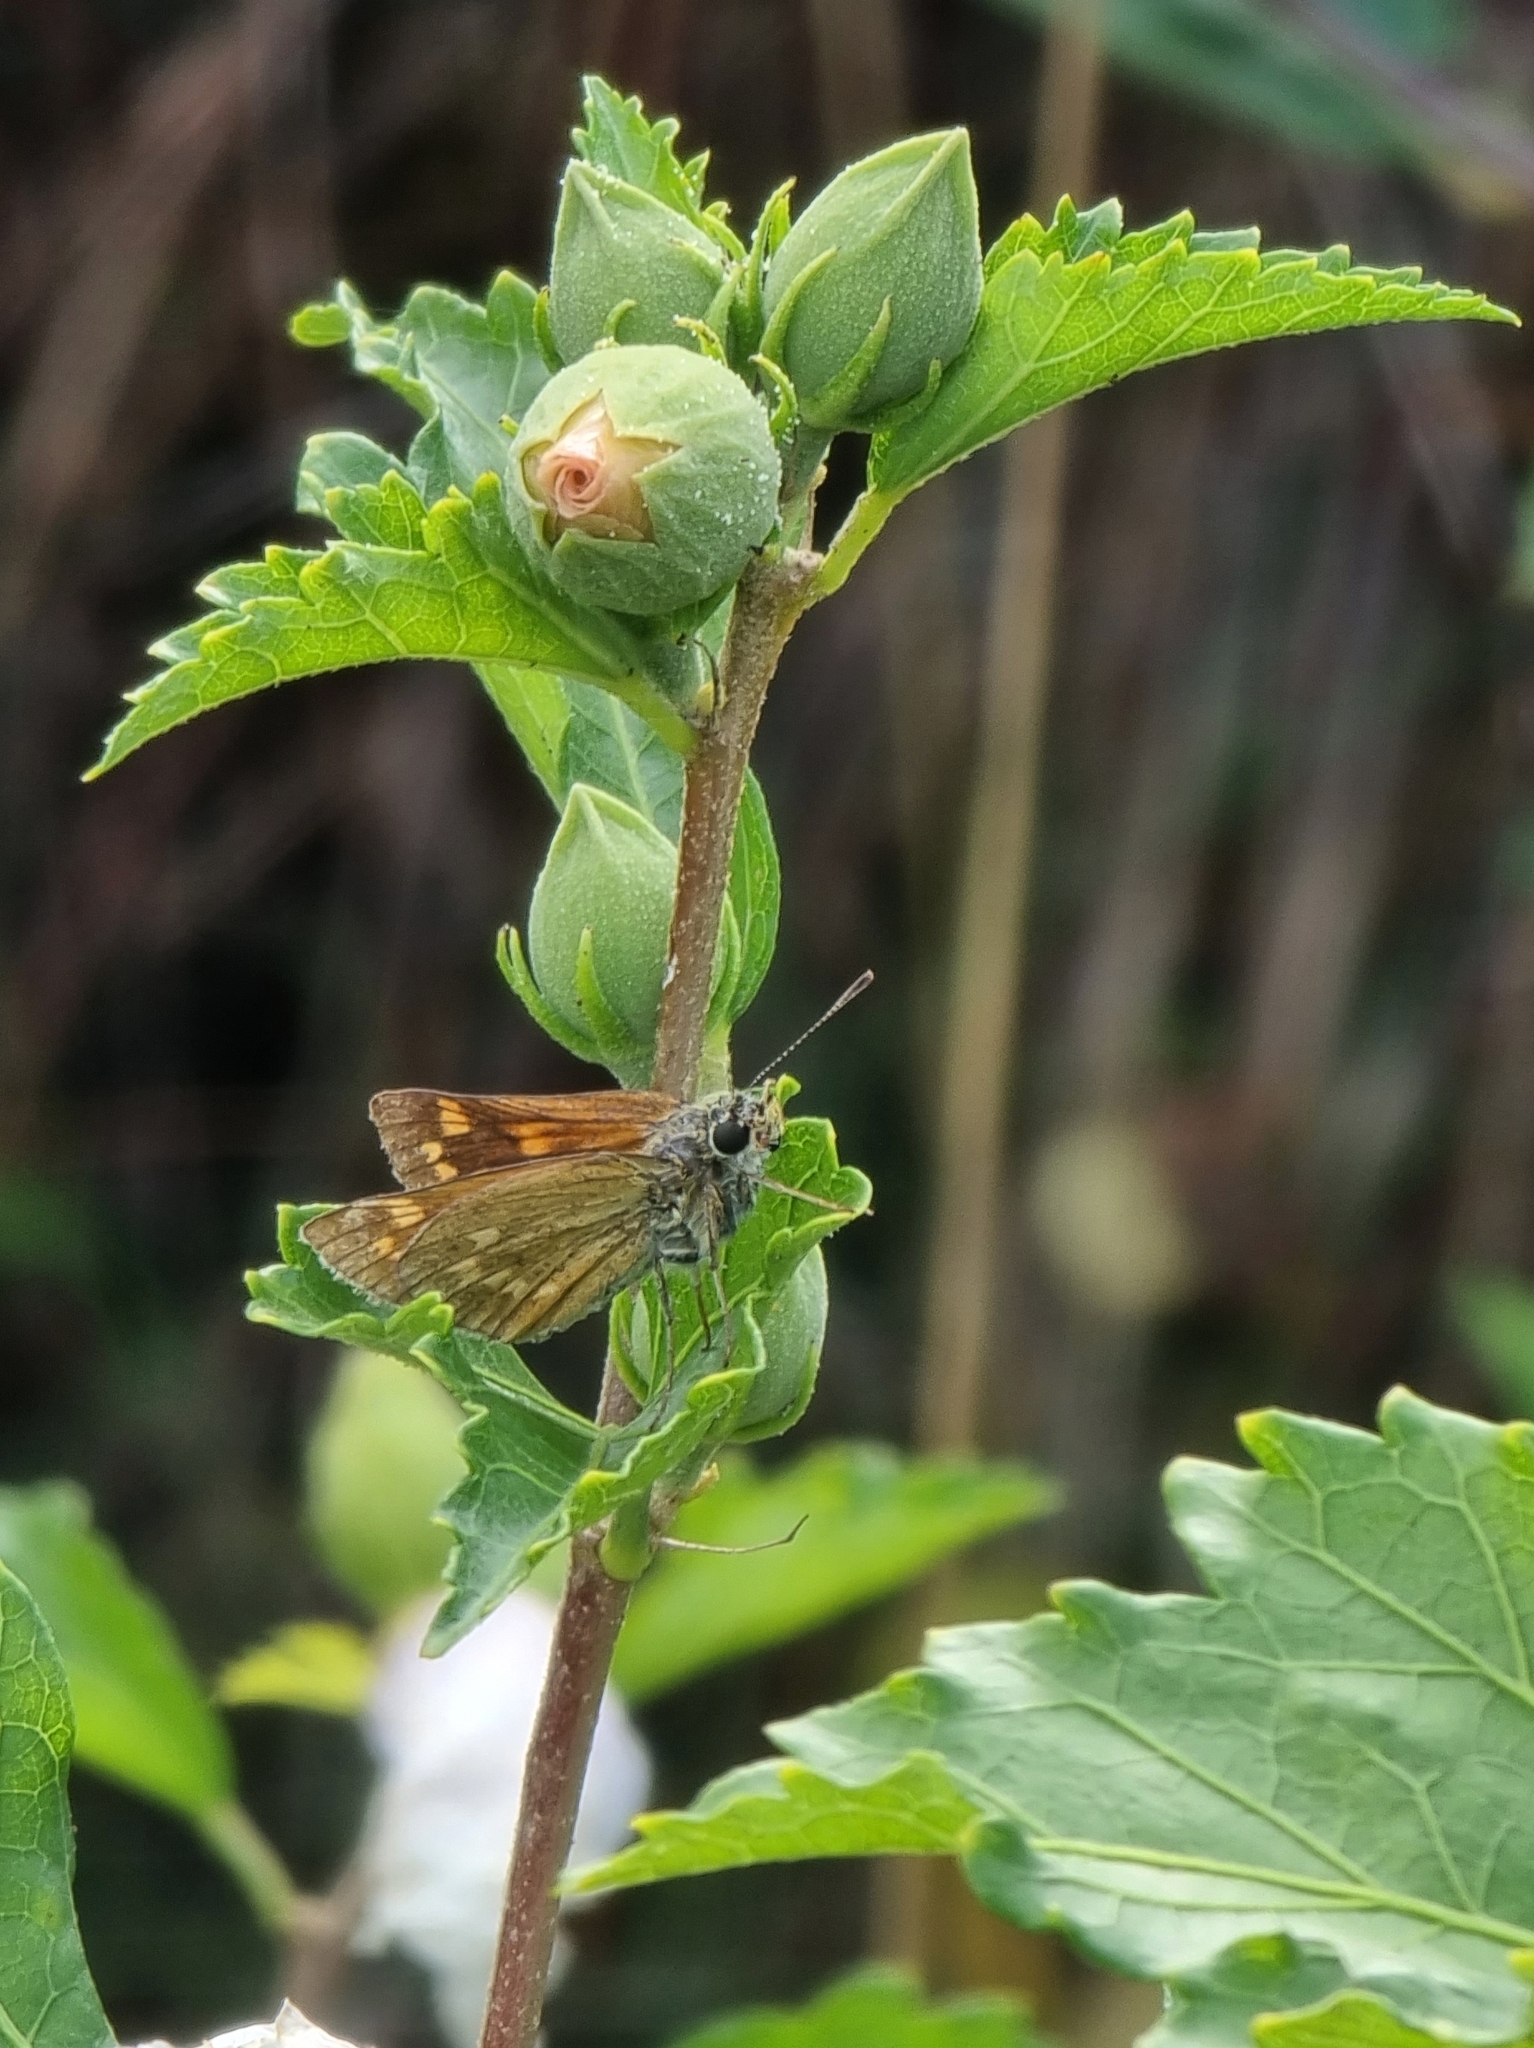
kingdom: Animalia
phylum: Arthropoda
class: Insecta
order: Lepidoptera
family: Hesperiidae
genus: Ochlodes
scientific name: Ochlodes venata
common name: Large skipper
